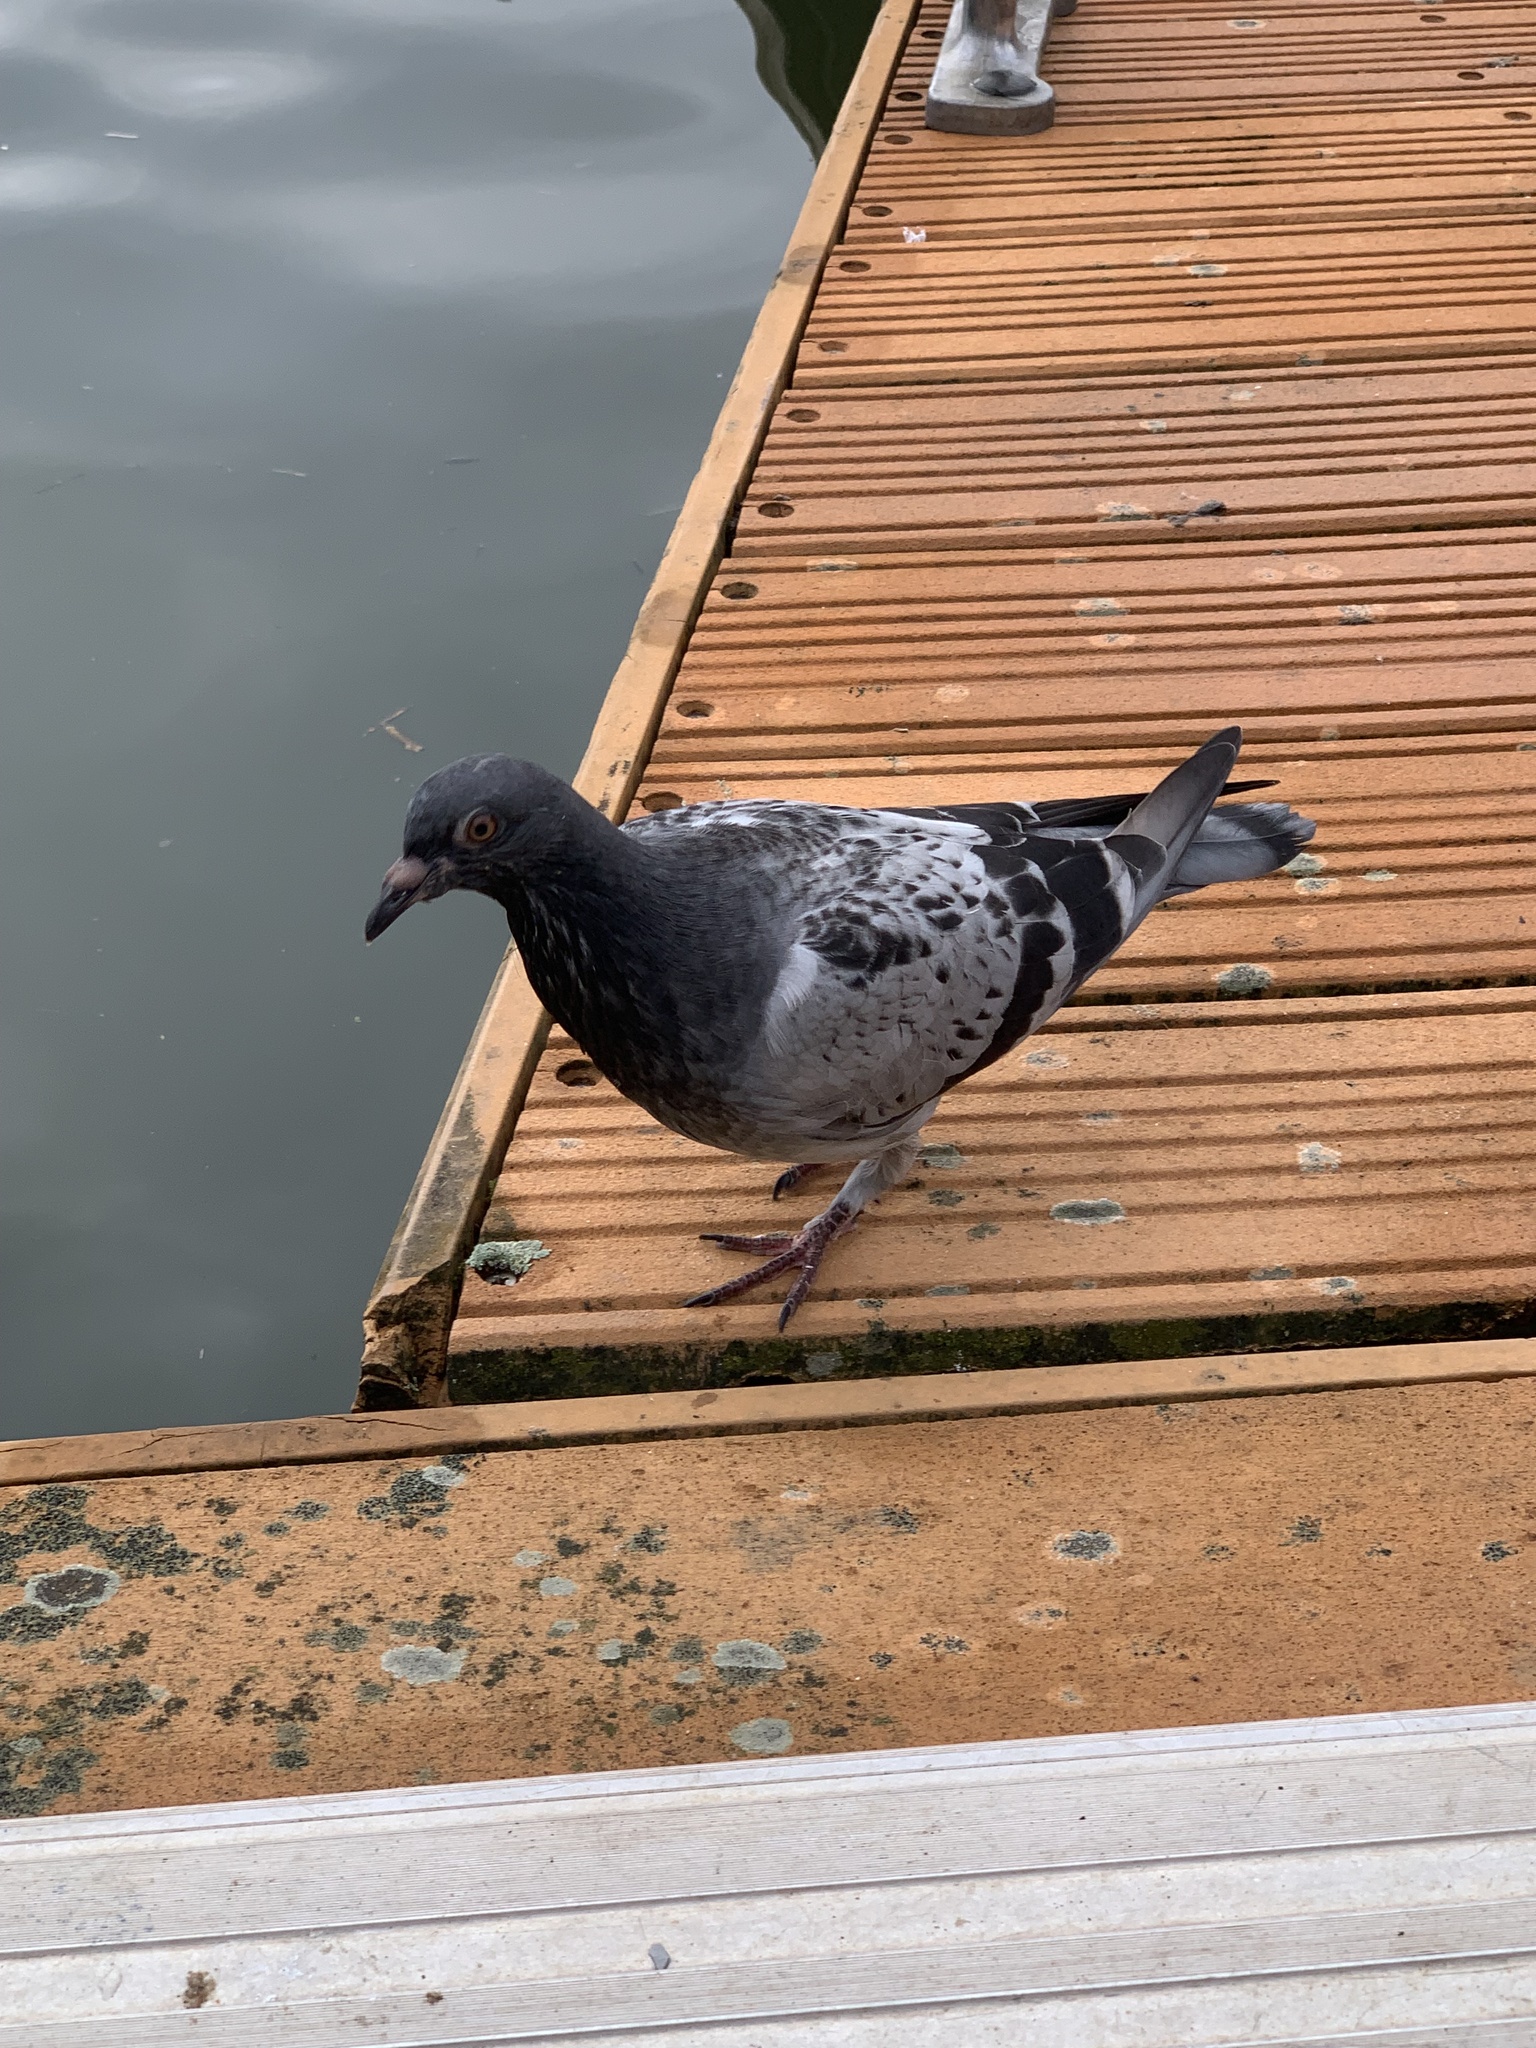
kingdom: Animalia
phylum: Chordata
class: Aves
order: Columbiformes
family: Columbidae
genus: Columba
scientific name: Columba livia
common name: Rock pigeon
